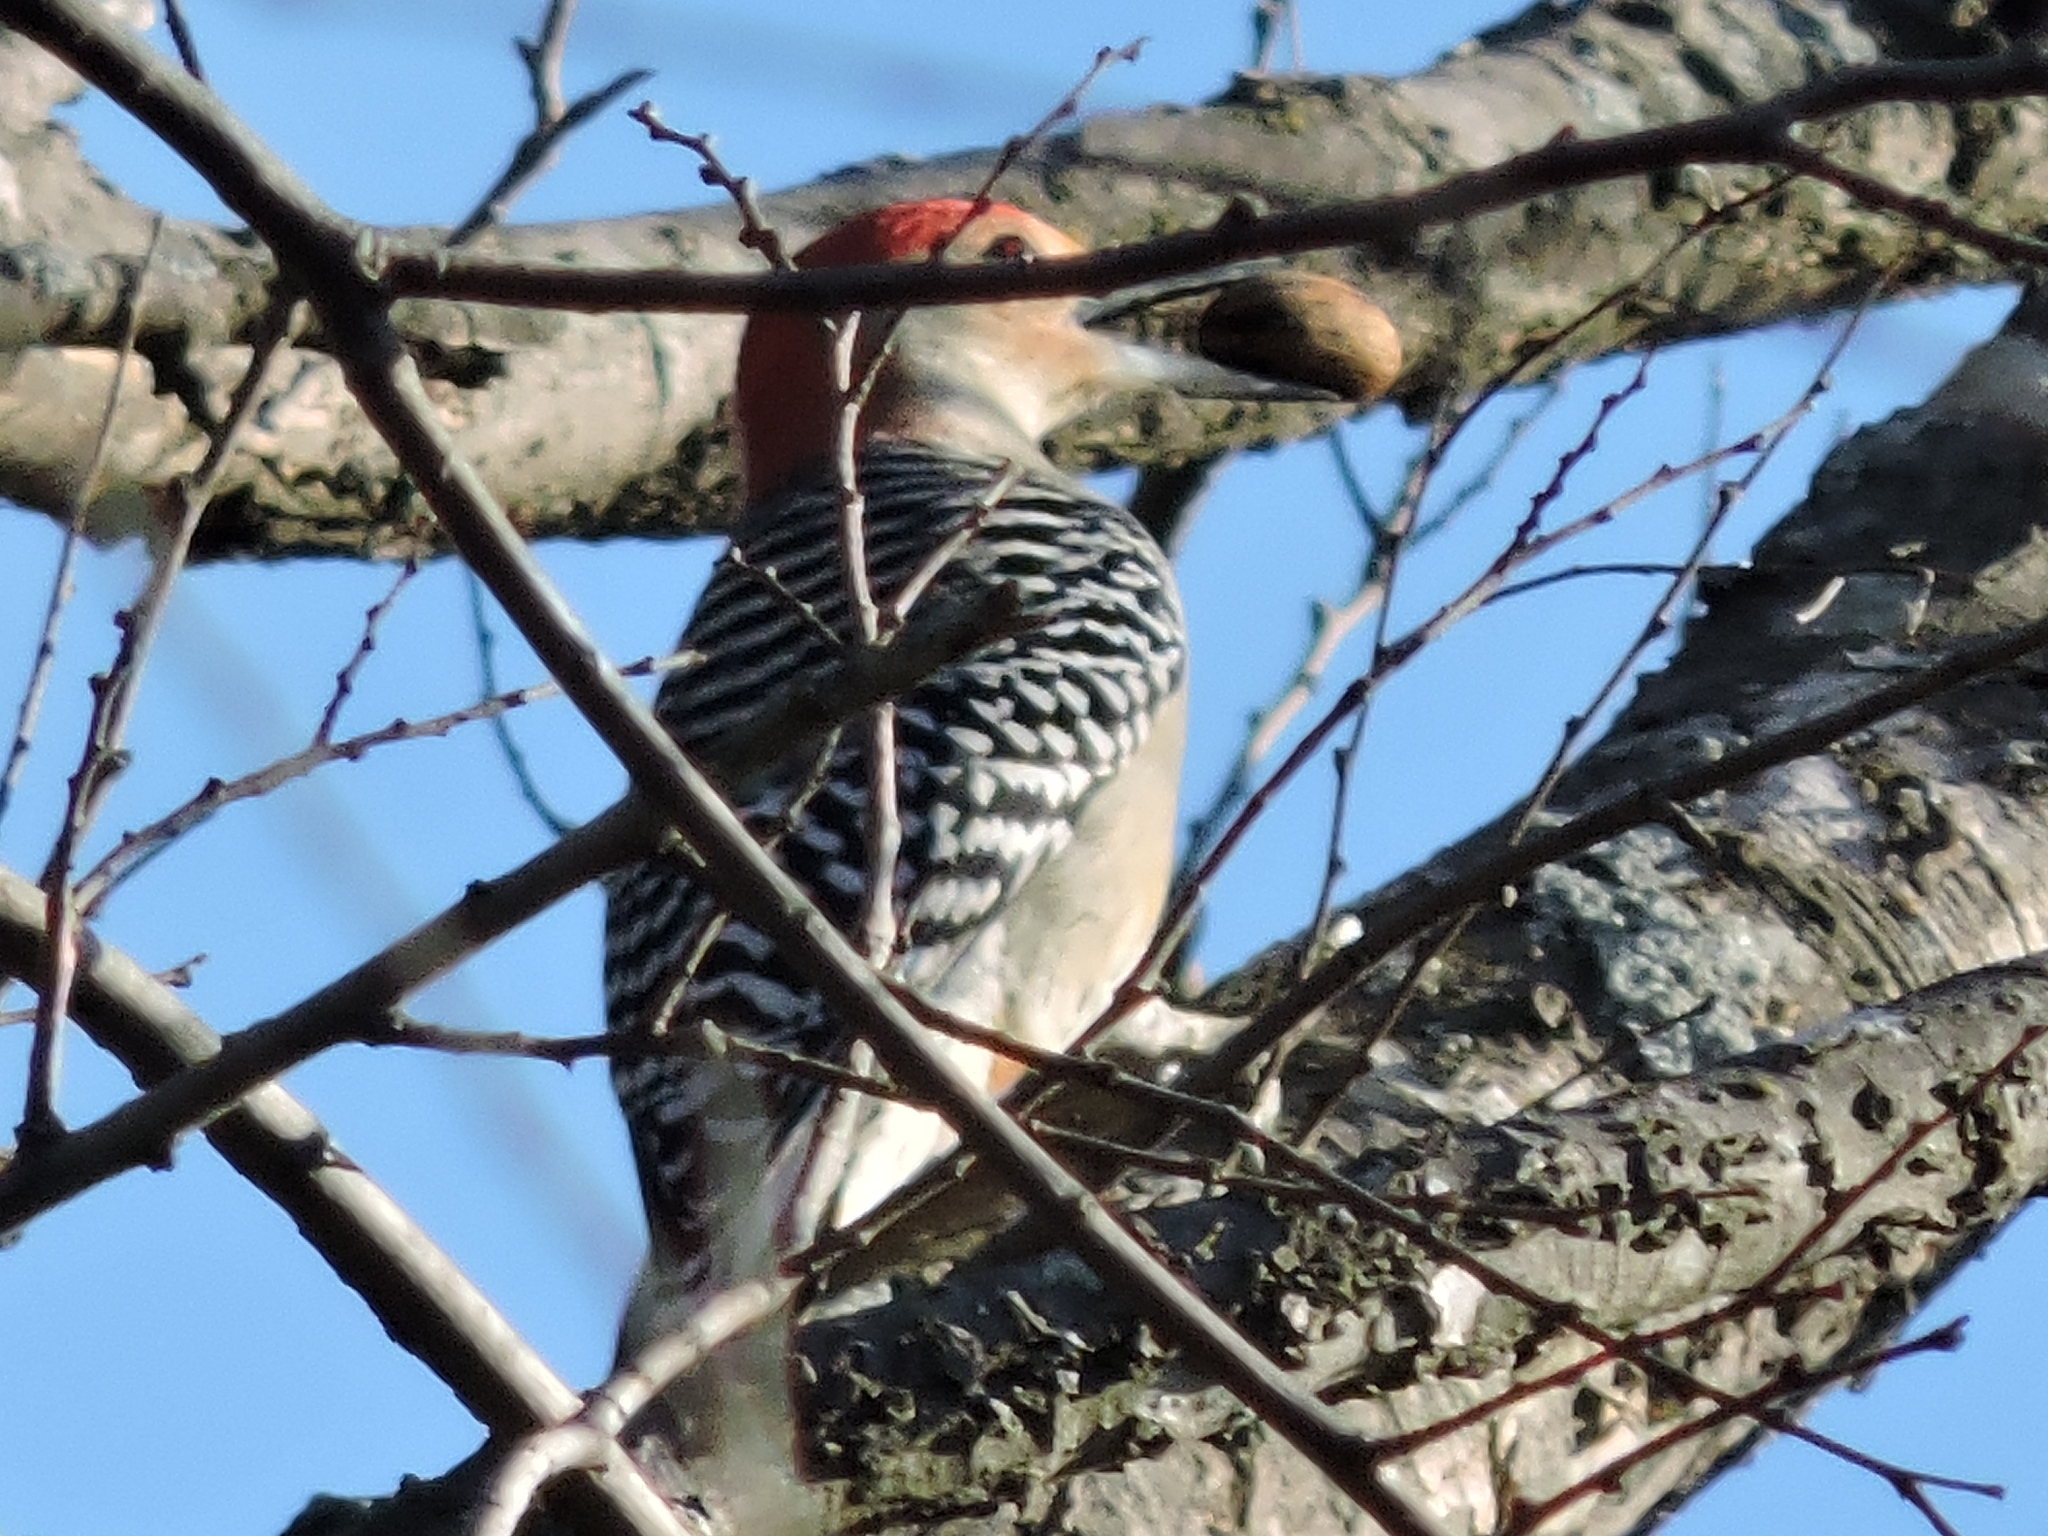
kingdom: Animalia
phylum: Chordata
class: Aves
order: Piciformes
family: Picidae
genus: Melanerpes
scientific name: Melanerpes carolinus
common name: Red-bellied woodpecker
